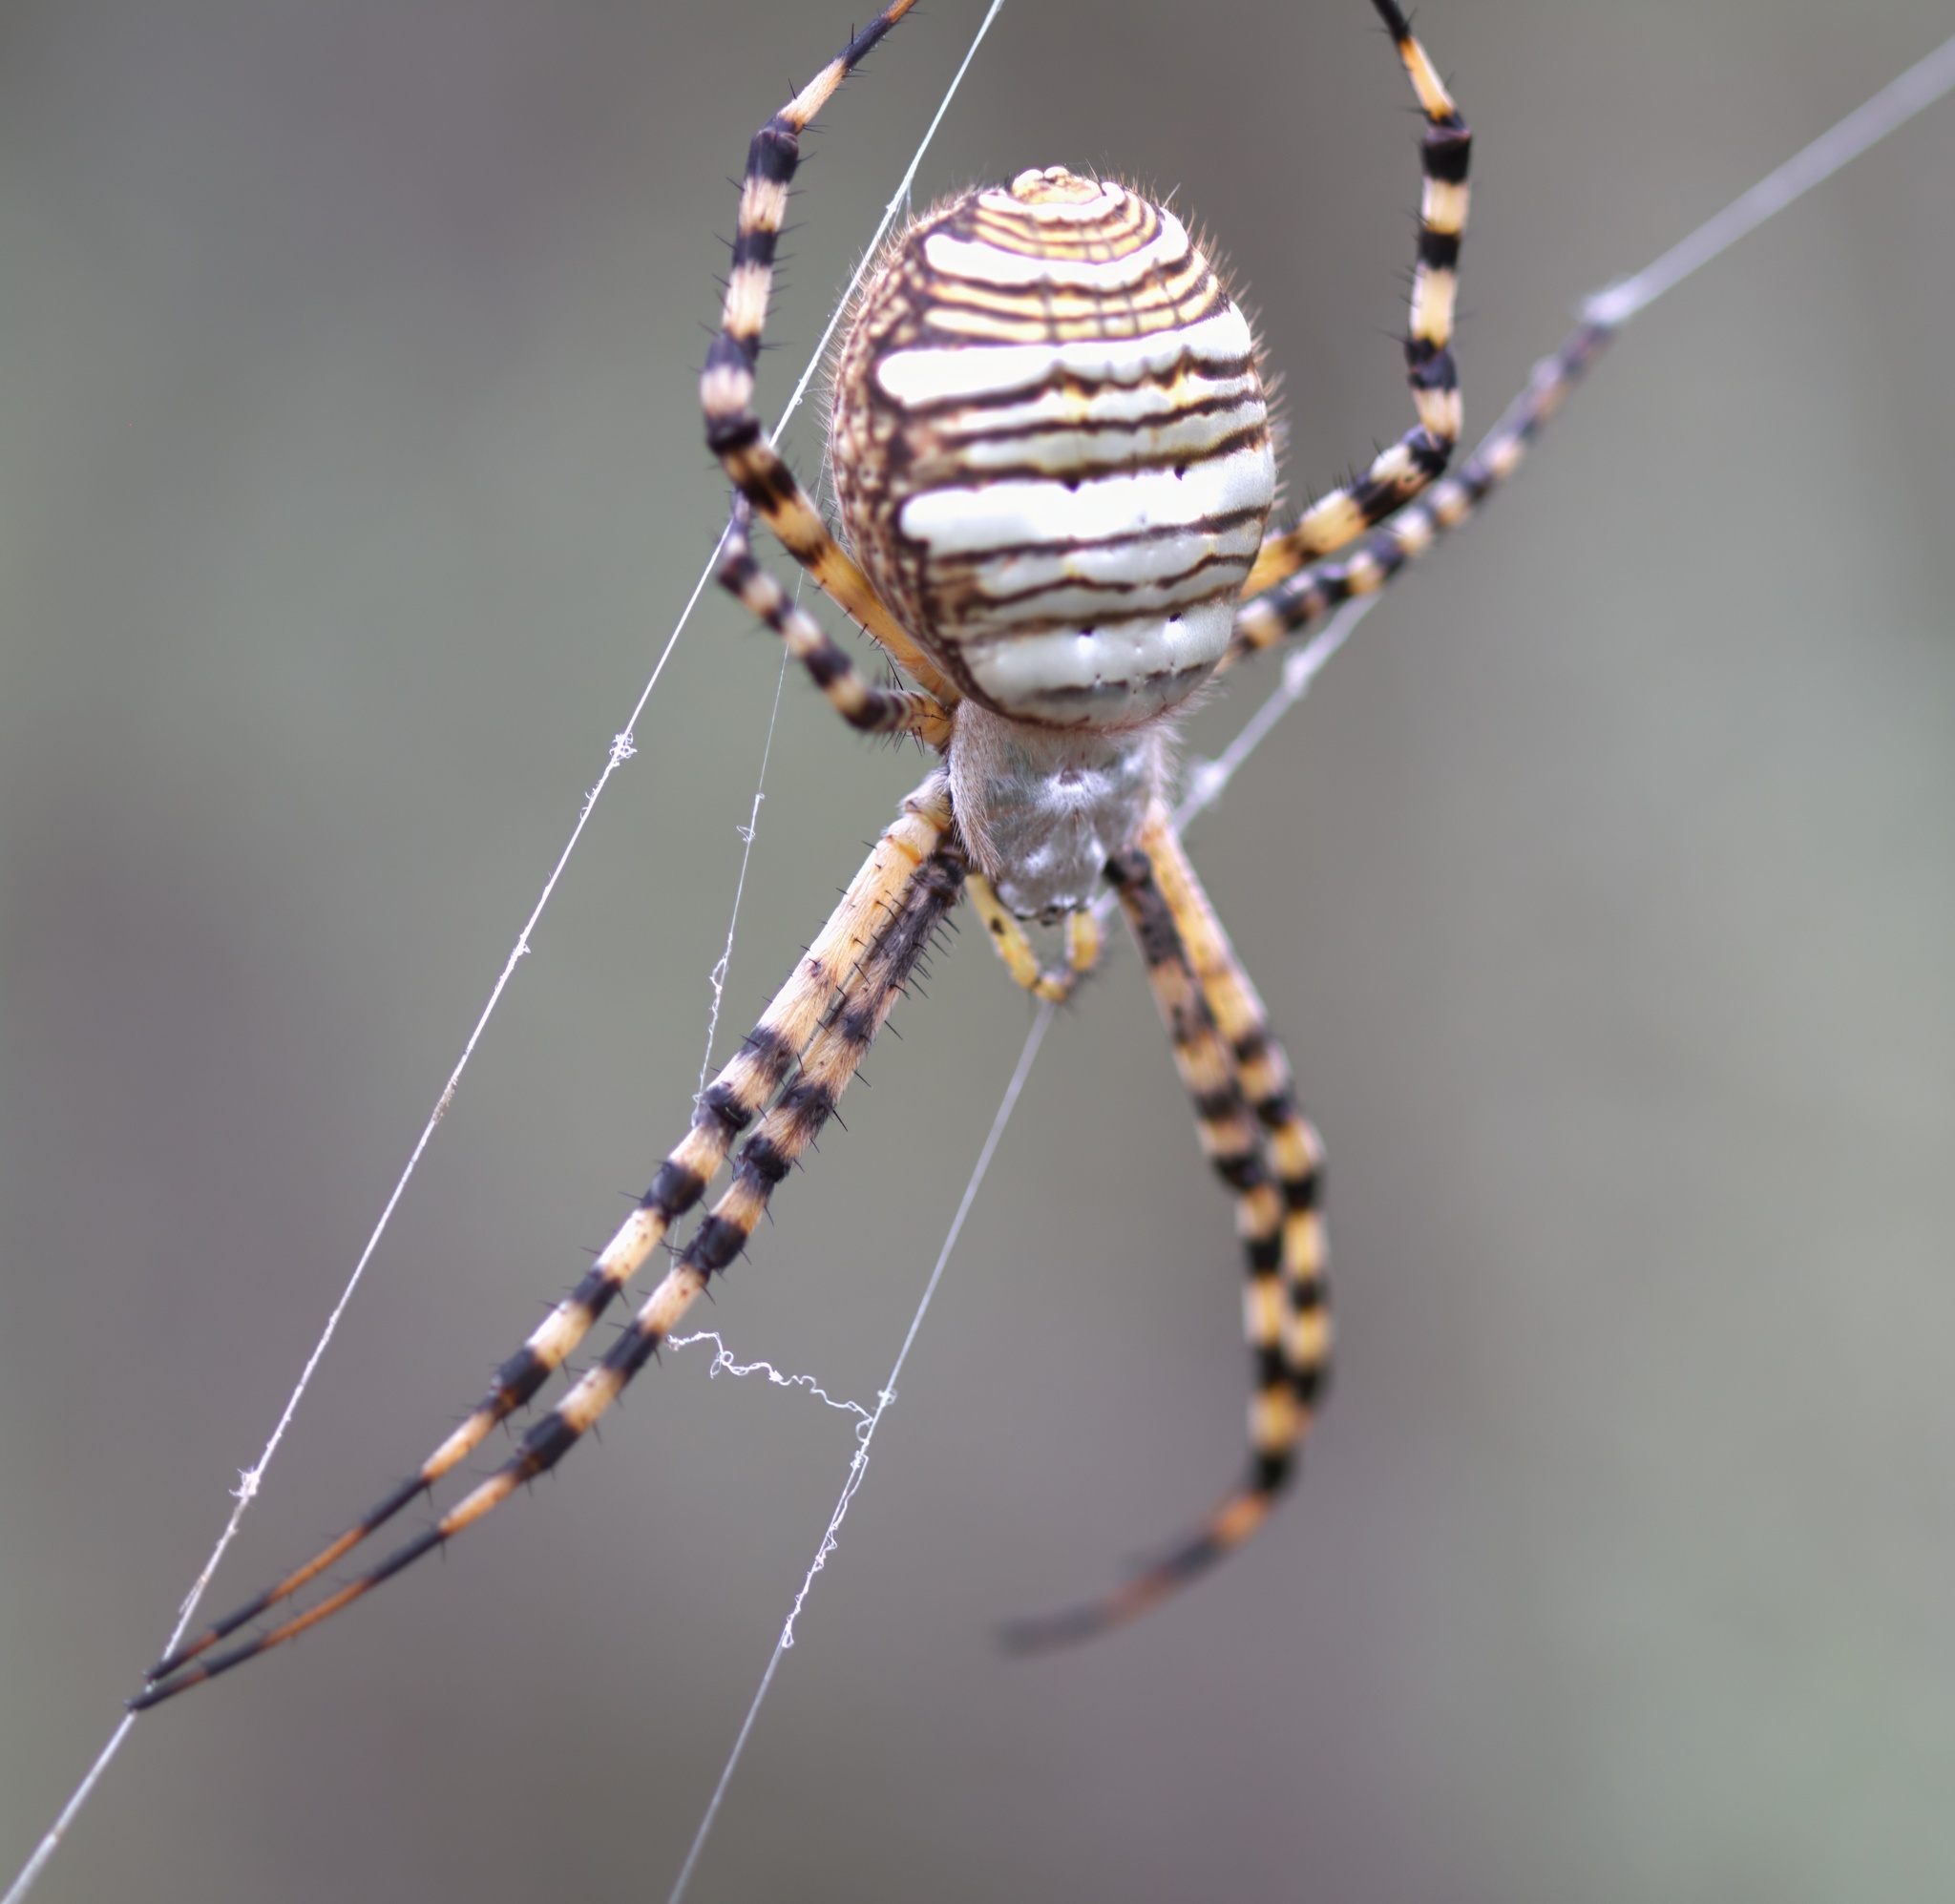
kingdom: Animalia
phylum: Arthropoda
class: Arachnida
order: Araneae
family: Araneidae
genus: Argiope
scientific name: Argiope trifasciata
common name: Banded garden spider
